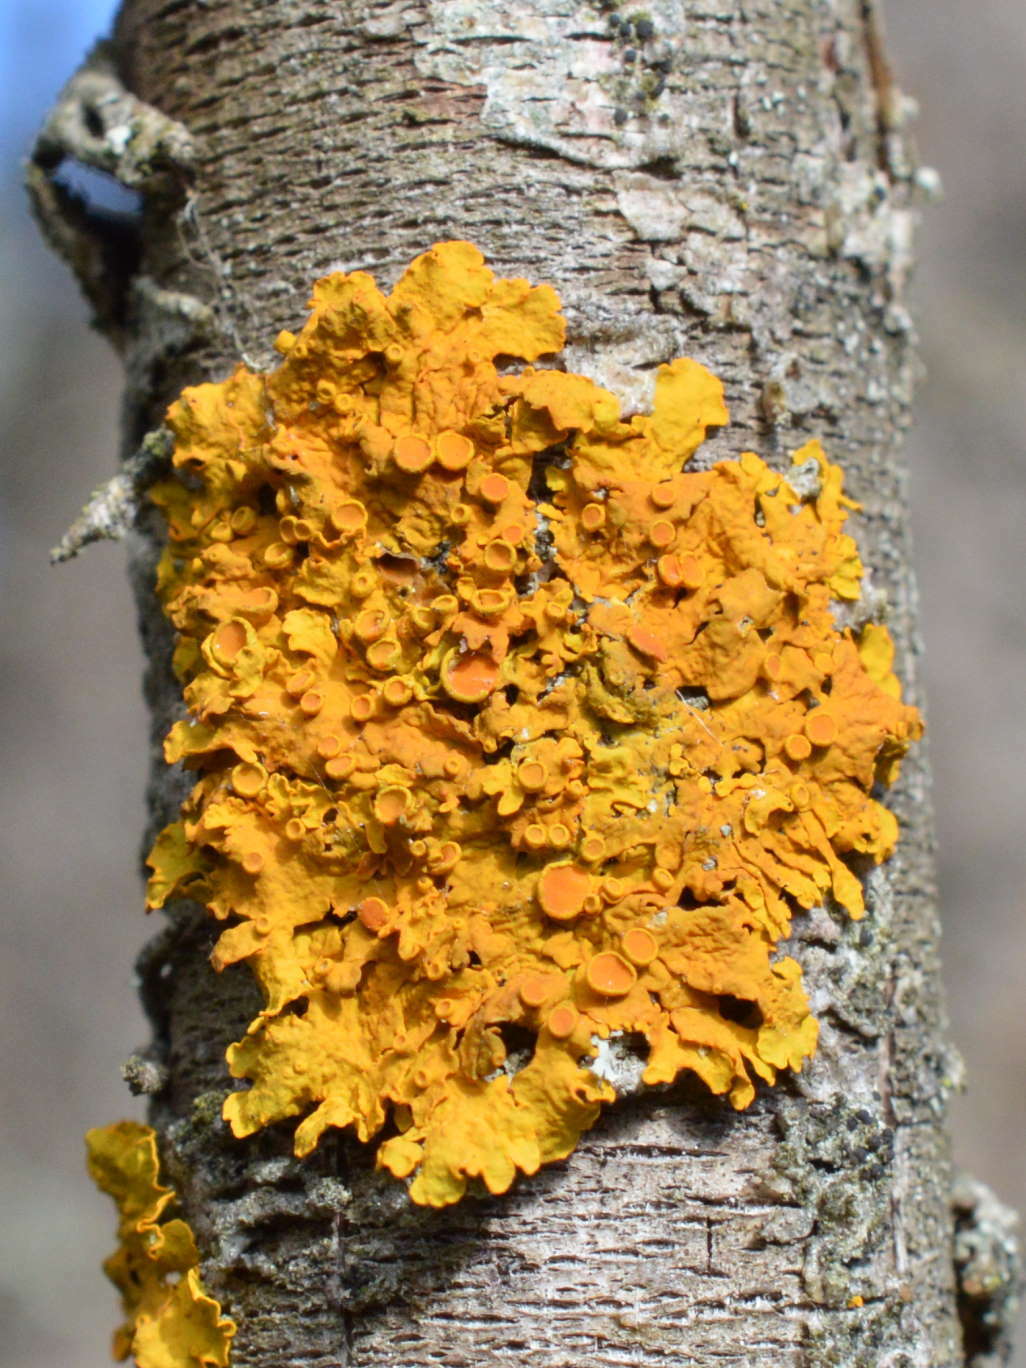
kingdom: Fungi
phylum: Ascomycota
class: Lecanoromycetes
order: Teloschistales
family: Teloschistaceae
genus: Xanthoria
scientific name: Xanthoria parietina
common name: Common orange lichen
